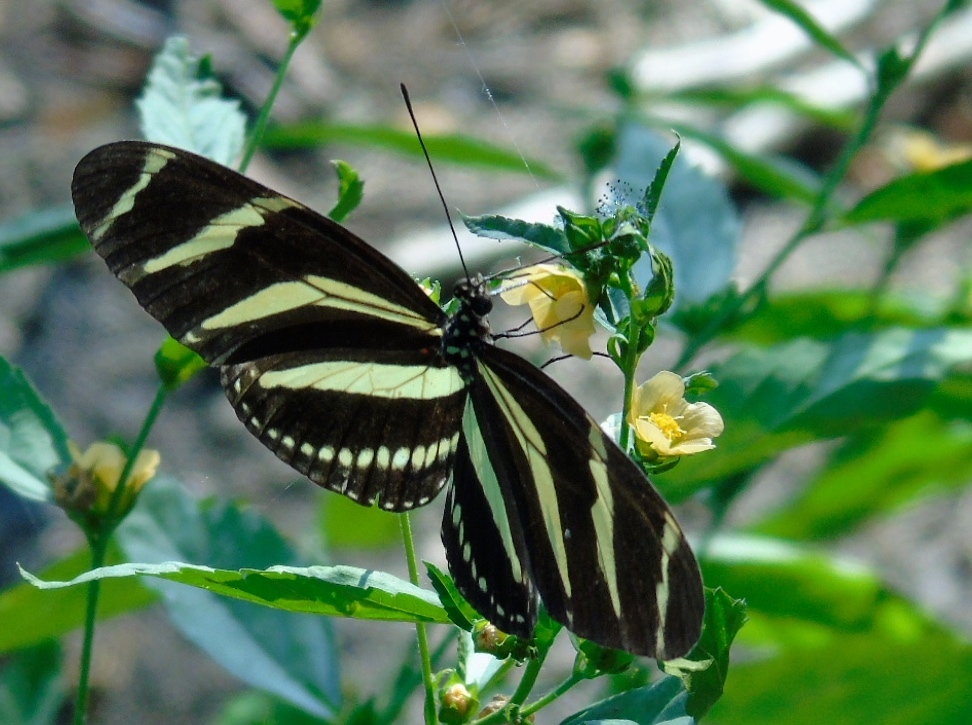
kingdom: Animalia
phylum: Arthropoda
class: Insecta
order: Lepidoptera
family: Nymphalidae
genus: Heliconius
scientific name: Heliconius charithonia
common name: Zebra long wing
